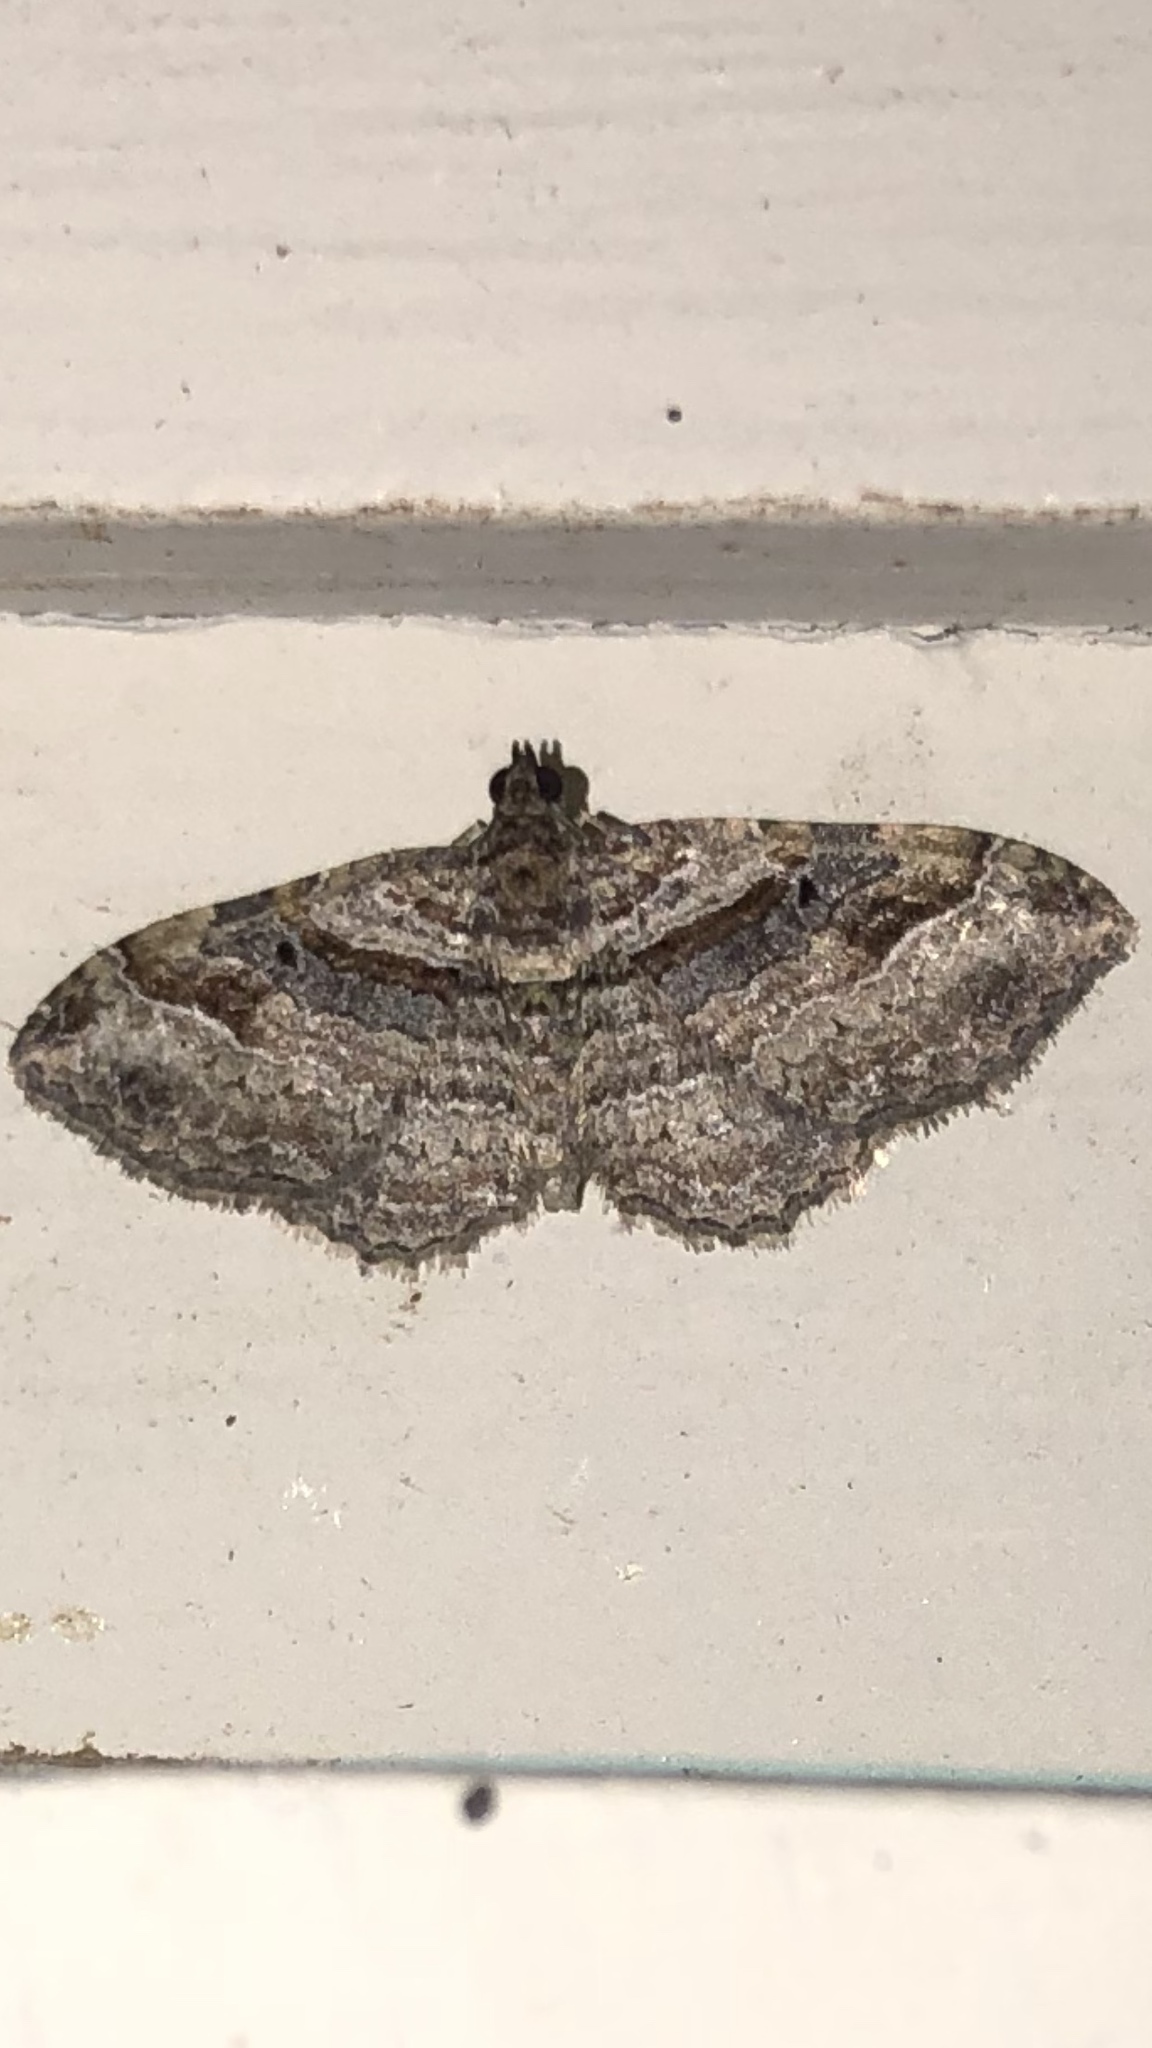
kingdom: Animalia
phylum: Arthropoda
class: Insecta
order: Lepidoptera
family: Geometridae
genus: Costaconvexa
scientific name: Costaconvexa centrostrigaria
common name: Bent-line carpet
